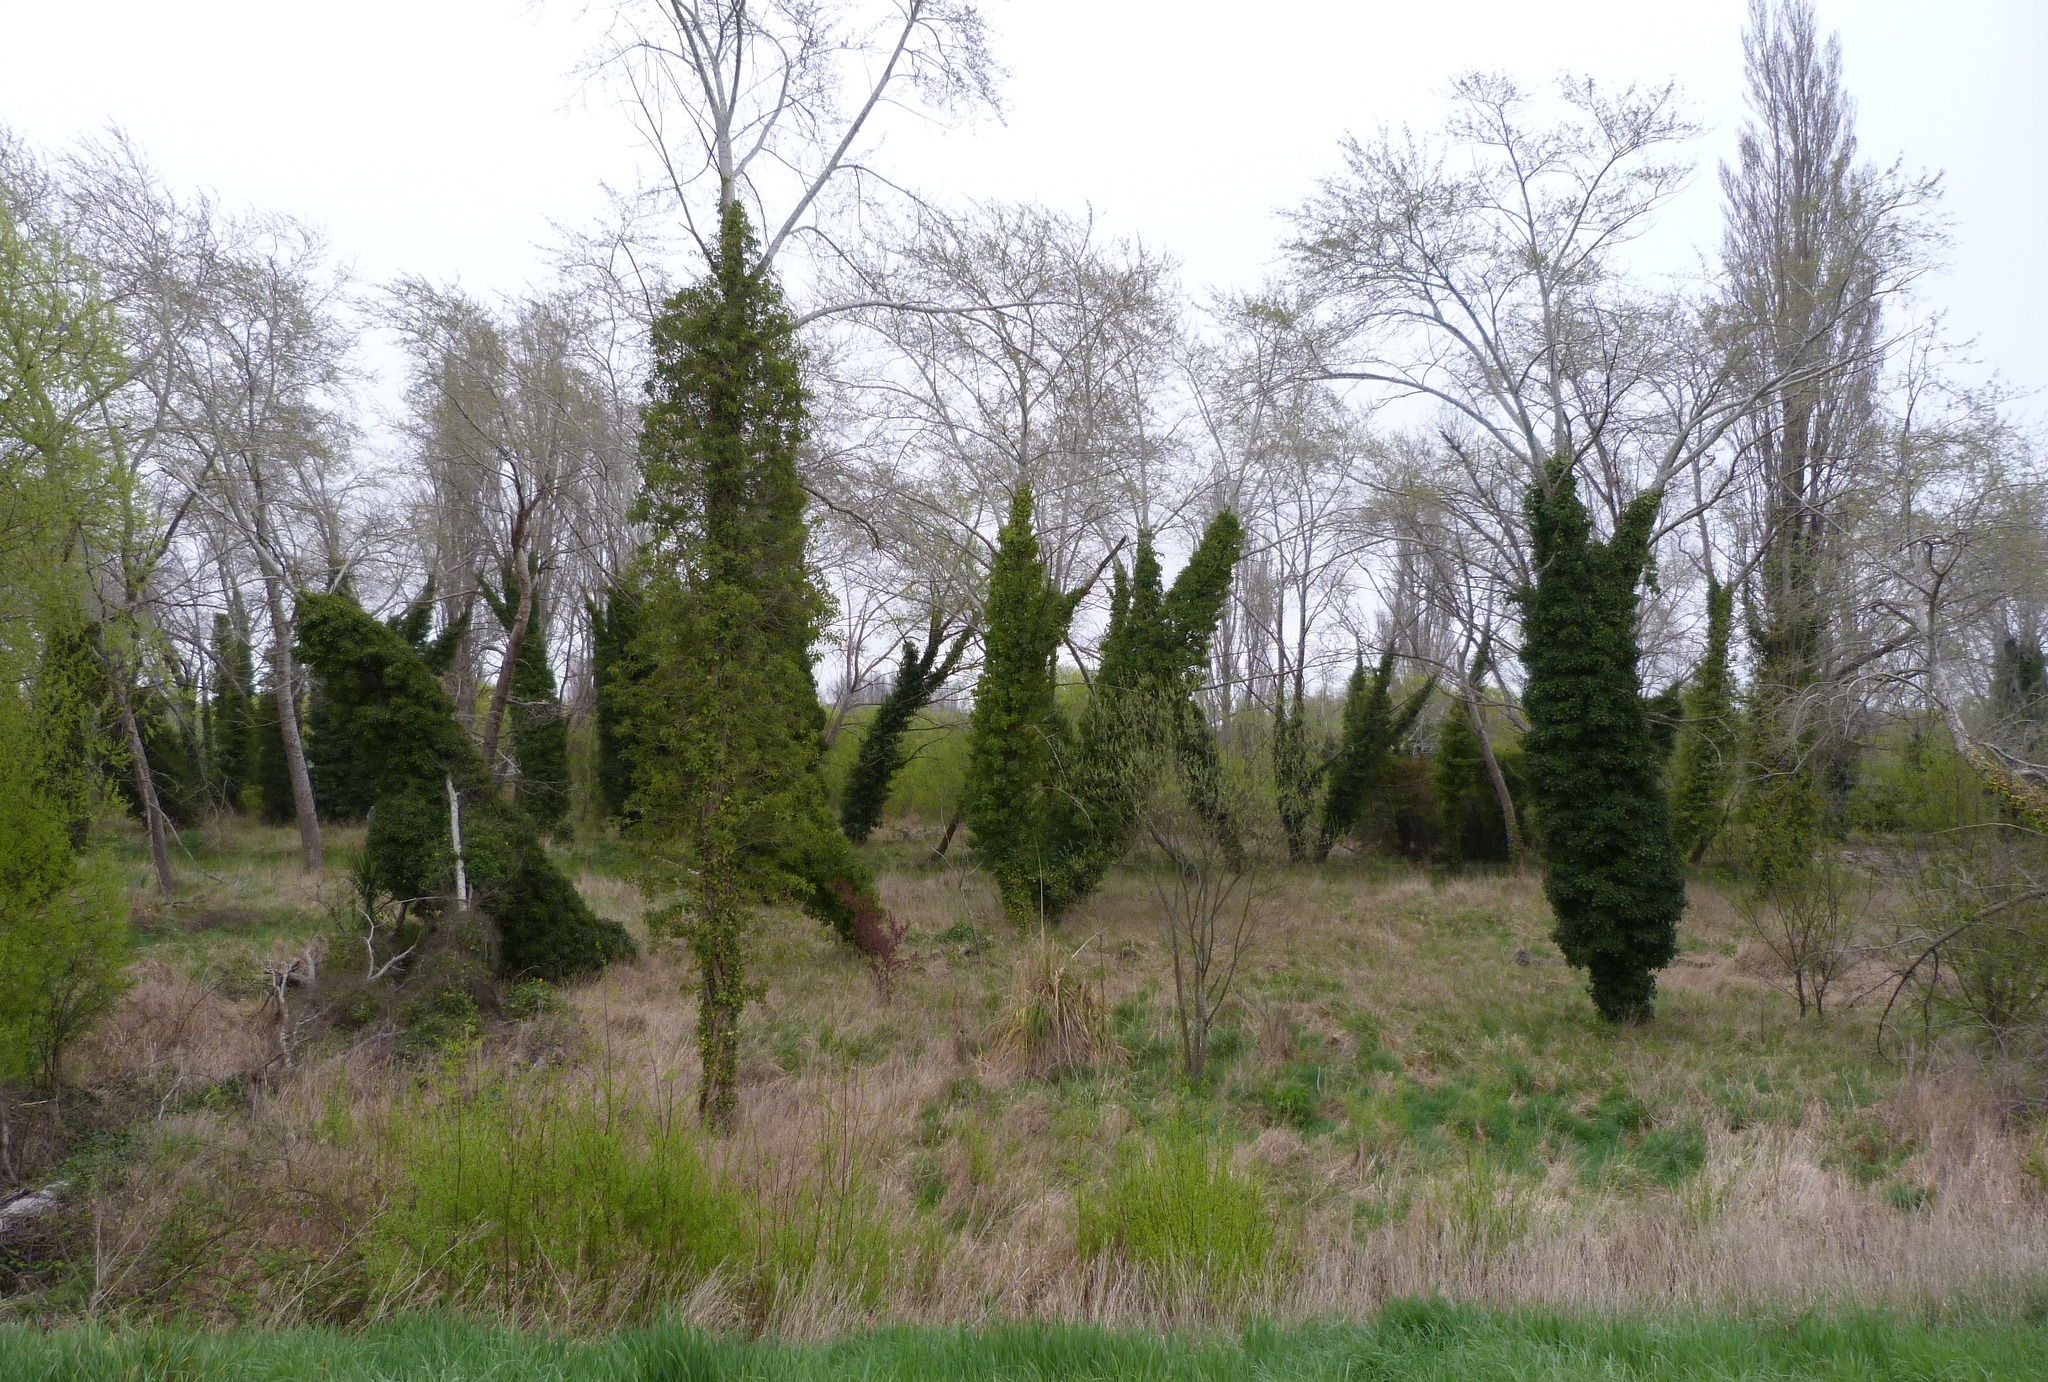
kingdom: Plantae
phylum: Tracheophyta
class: Magnoliopsida
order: Apiales
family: Araliaceae
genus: Hedera
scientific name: Hedera helix
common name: Ivy
